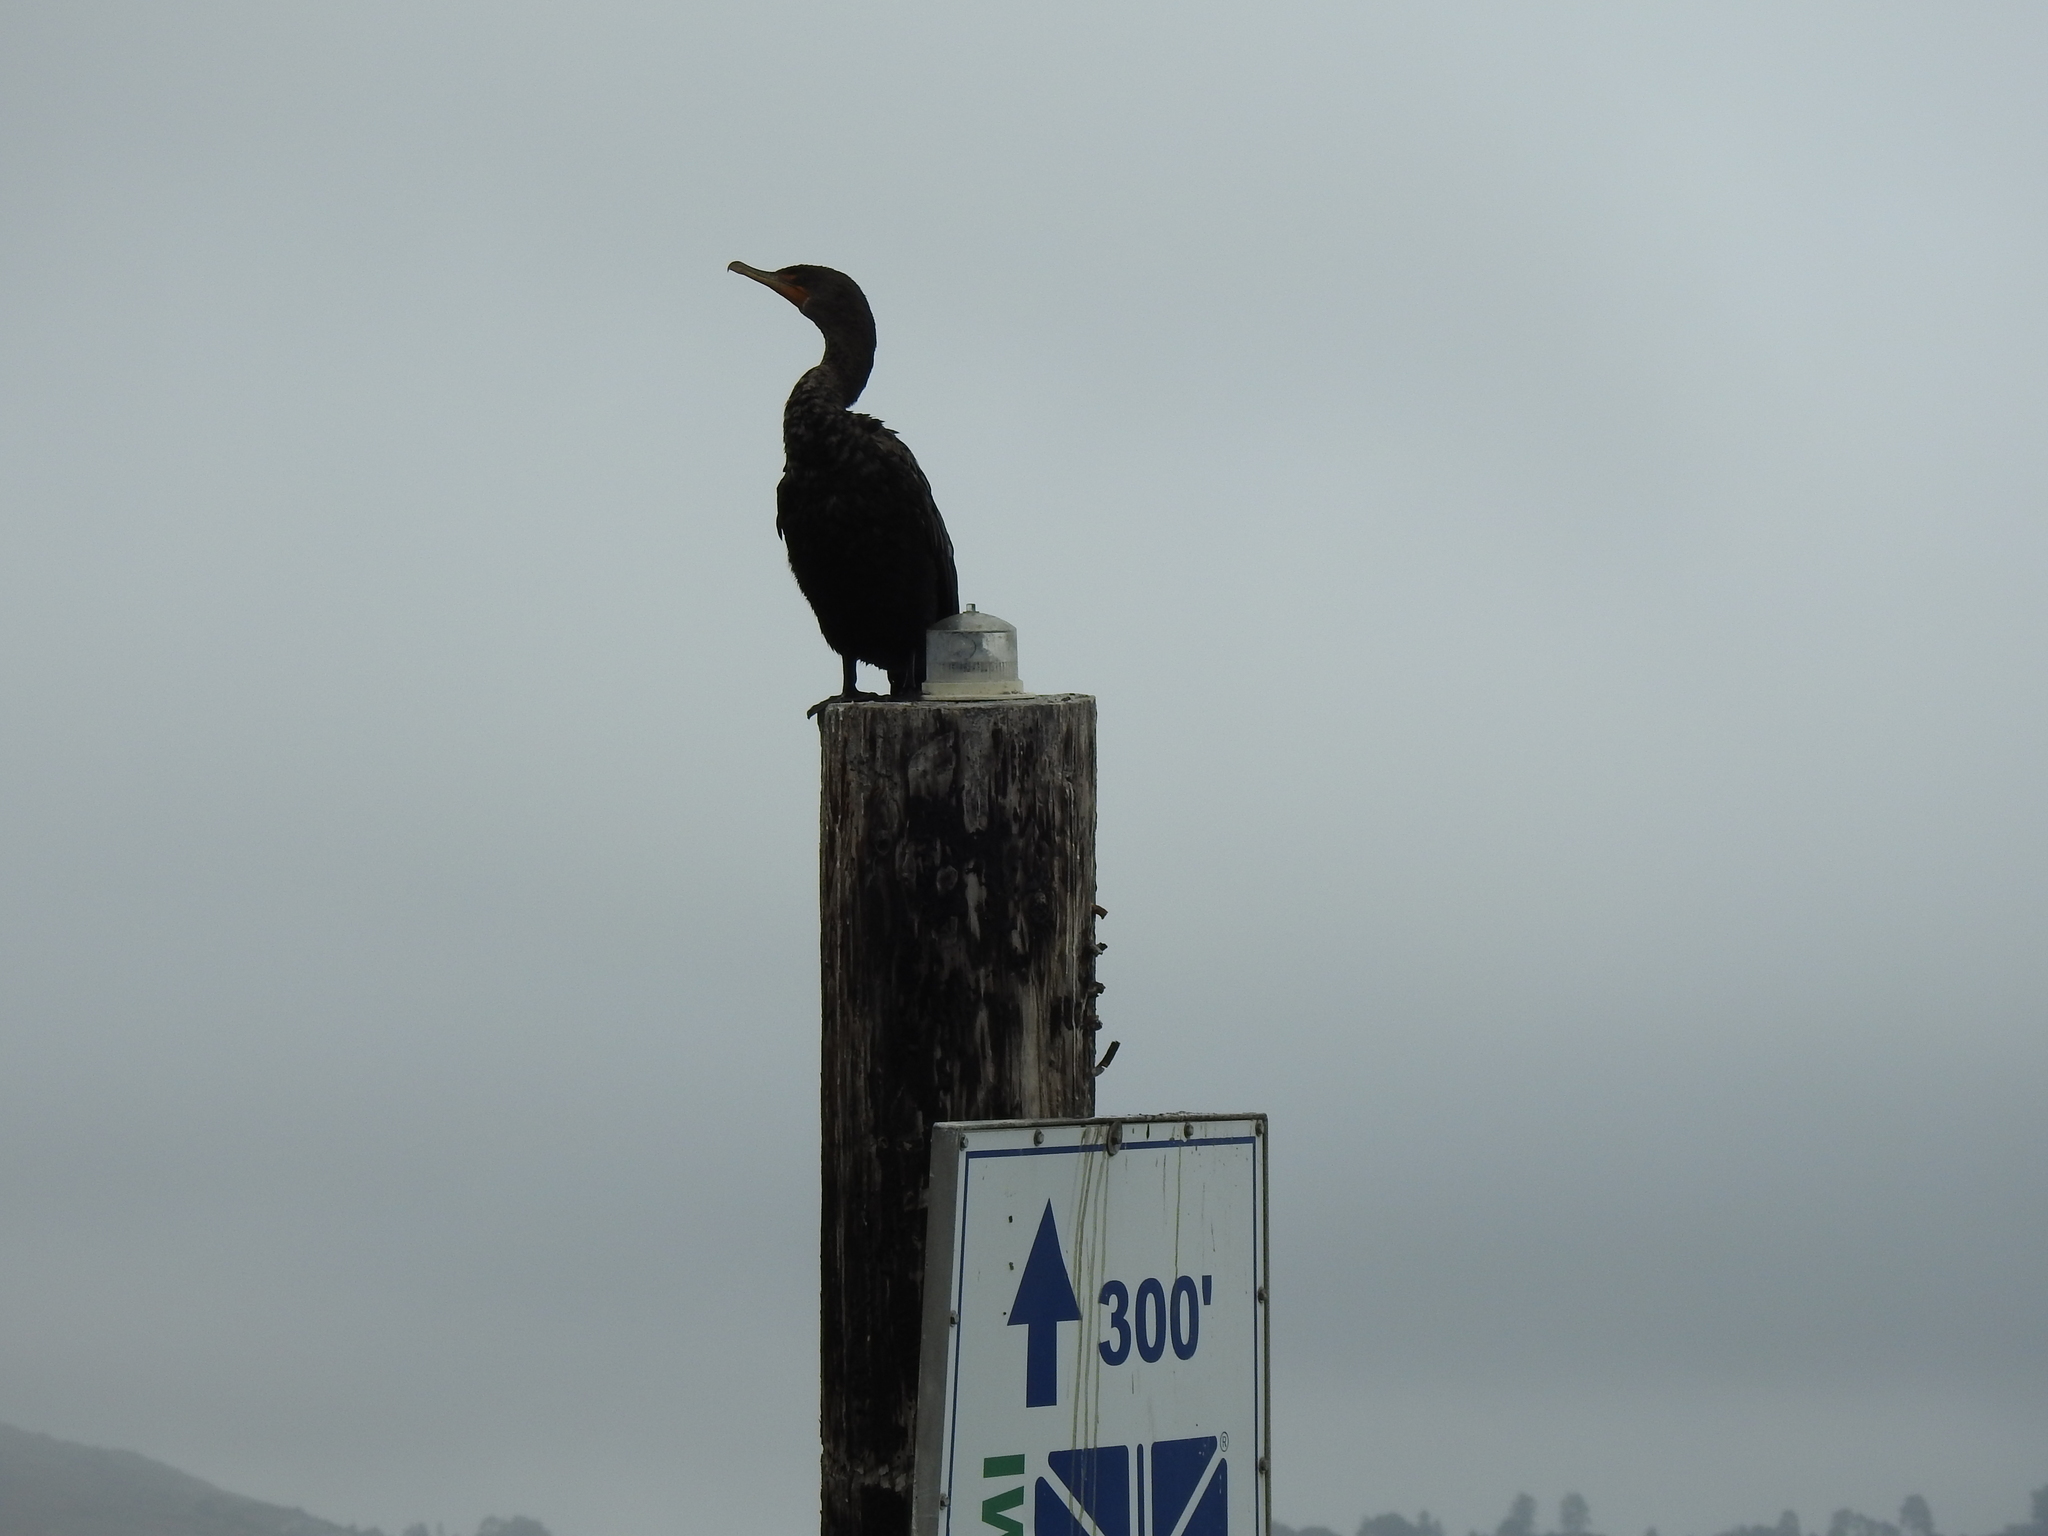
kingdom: Animalia
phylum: Chordata
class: Aves
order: Suliformes
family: Phalacrocoracidae
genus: Phalacrocorax
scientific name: Phalacrocorax auritus
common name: Double-crested cormorant
